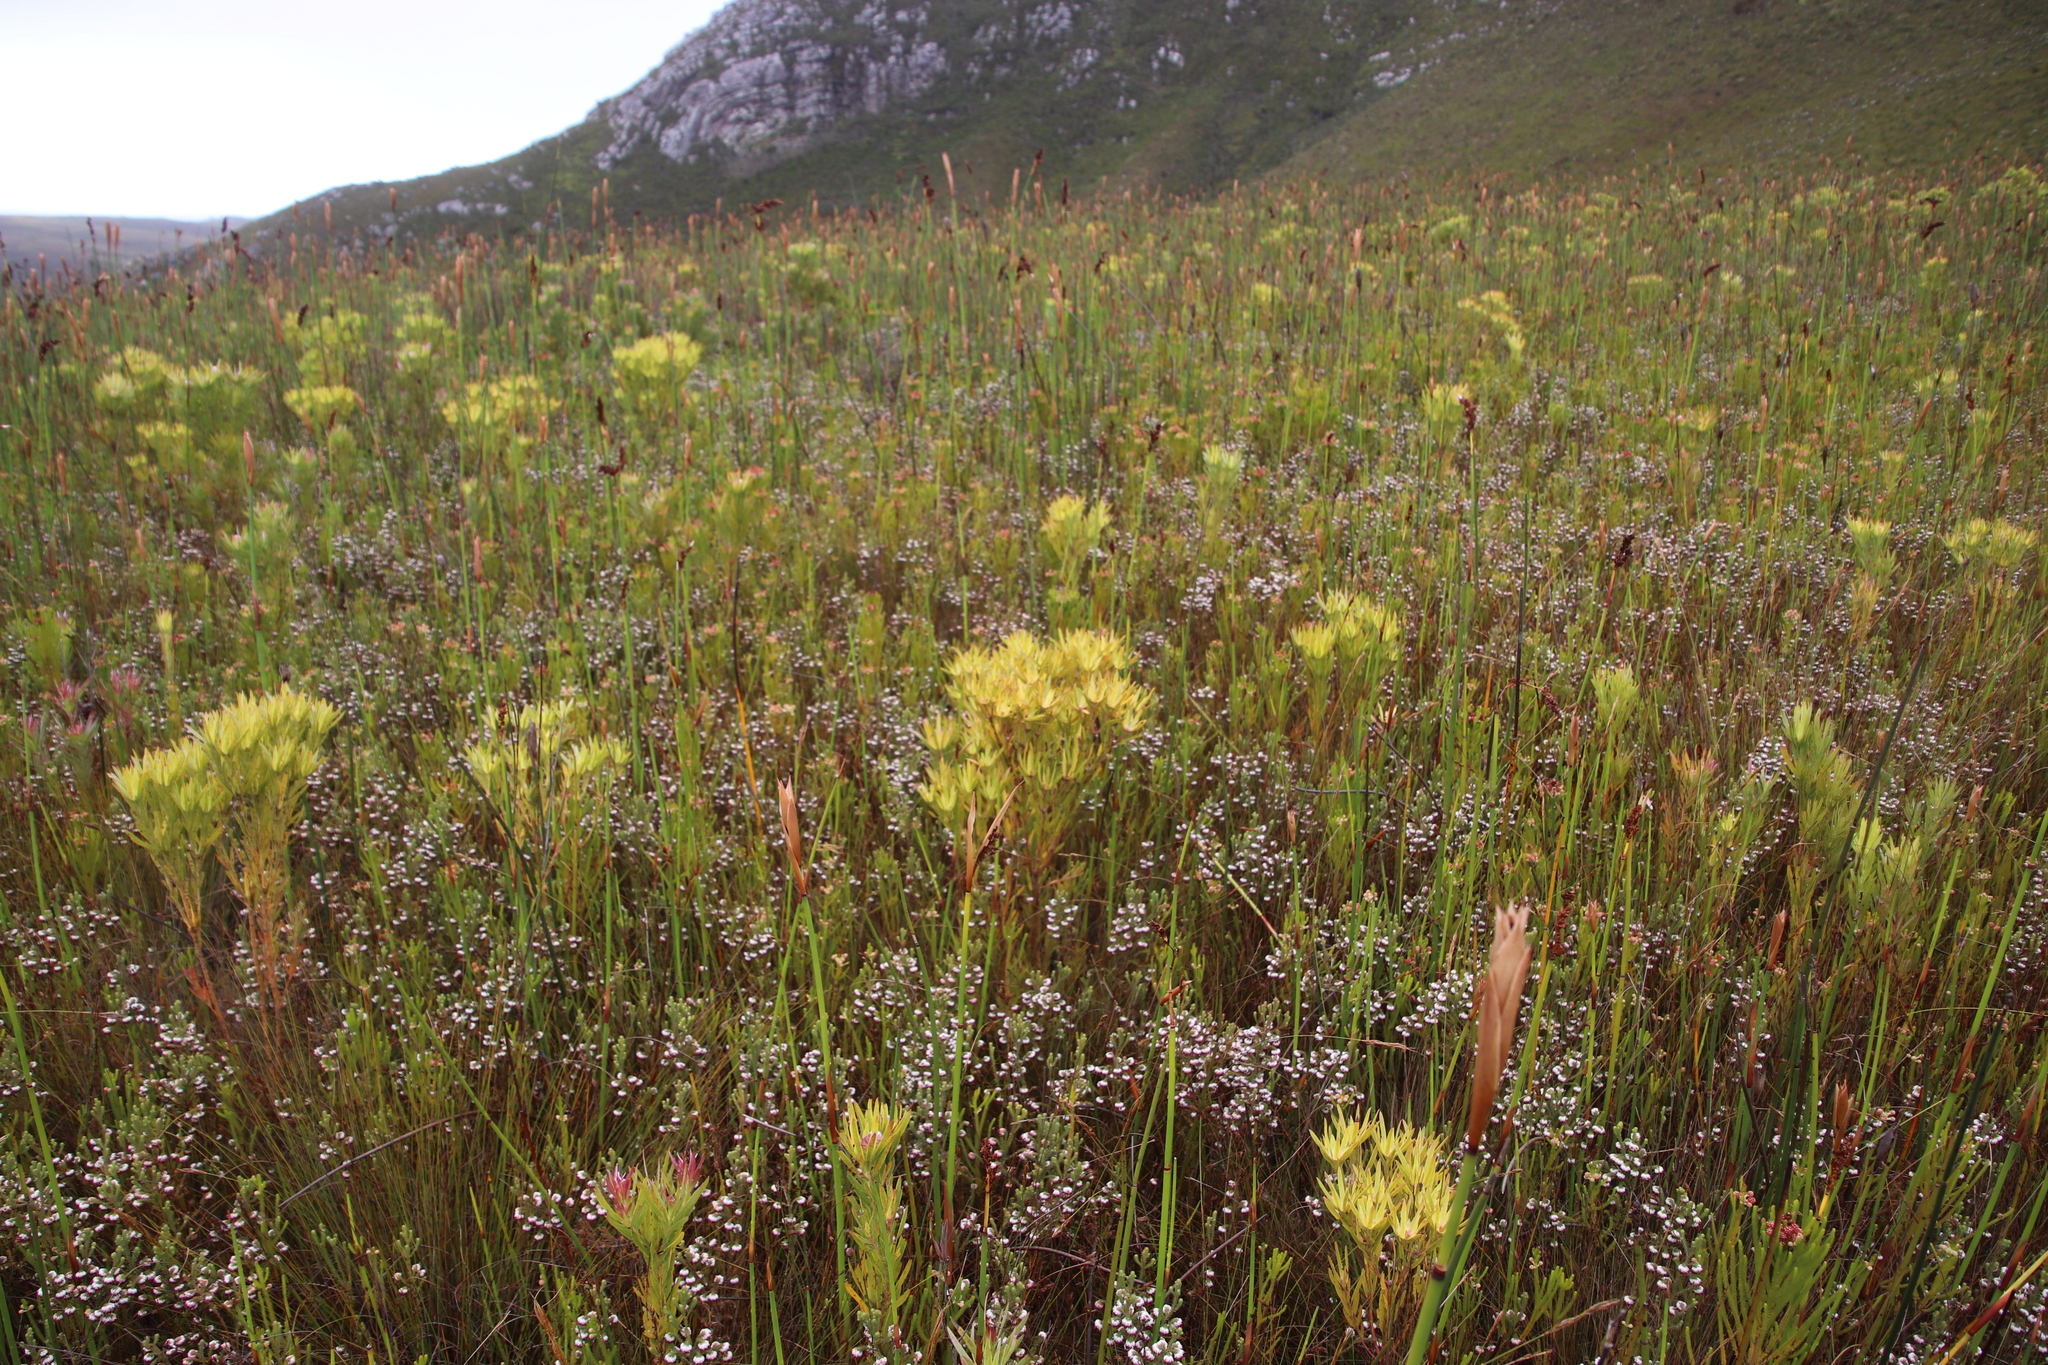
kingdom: Plantae
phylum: Tracheophyta
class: Magnoliopsida
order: Proteales
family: Proteaceae
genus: Leucadendron
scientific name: Leucadendron xanthoconus
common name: Sickle-leaf conebush
